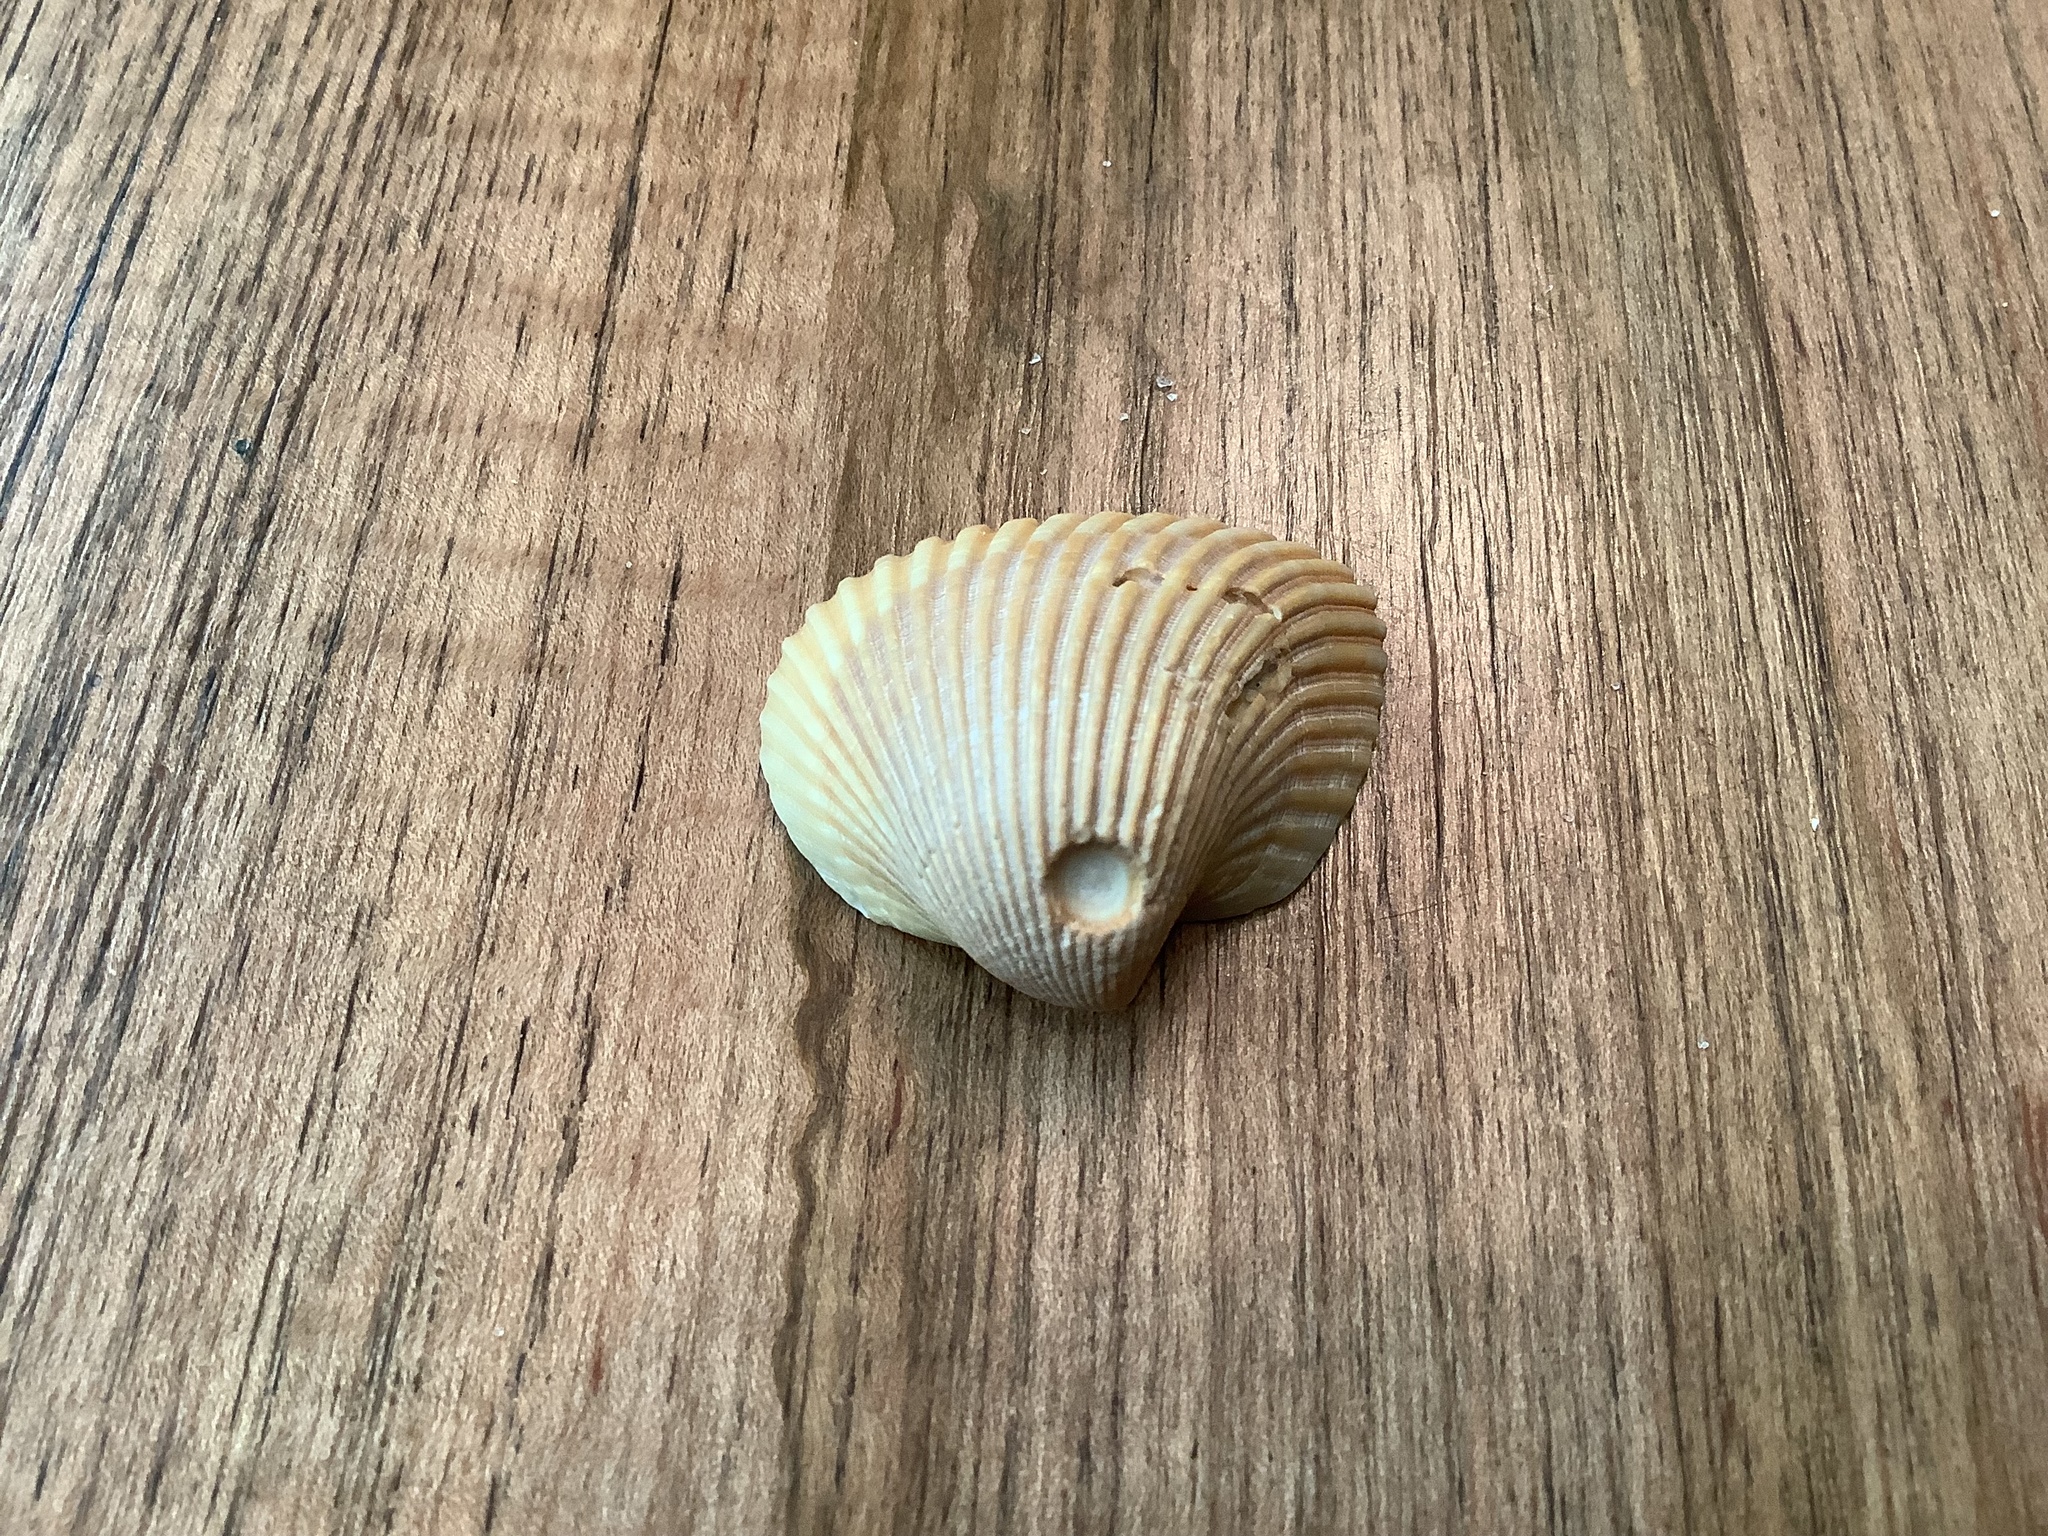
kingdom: Animalia
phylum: Mollusca
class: Bivalvia
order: Arcida
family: Noetiidae
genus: Noetia
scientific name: Noetia ponderosa
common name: Ponderous ark
